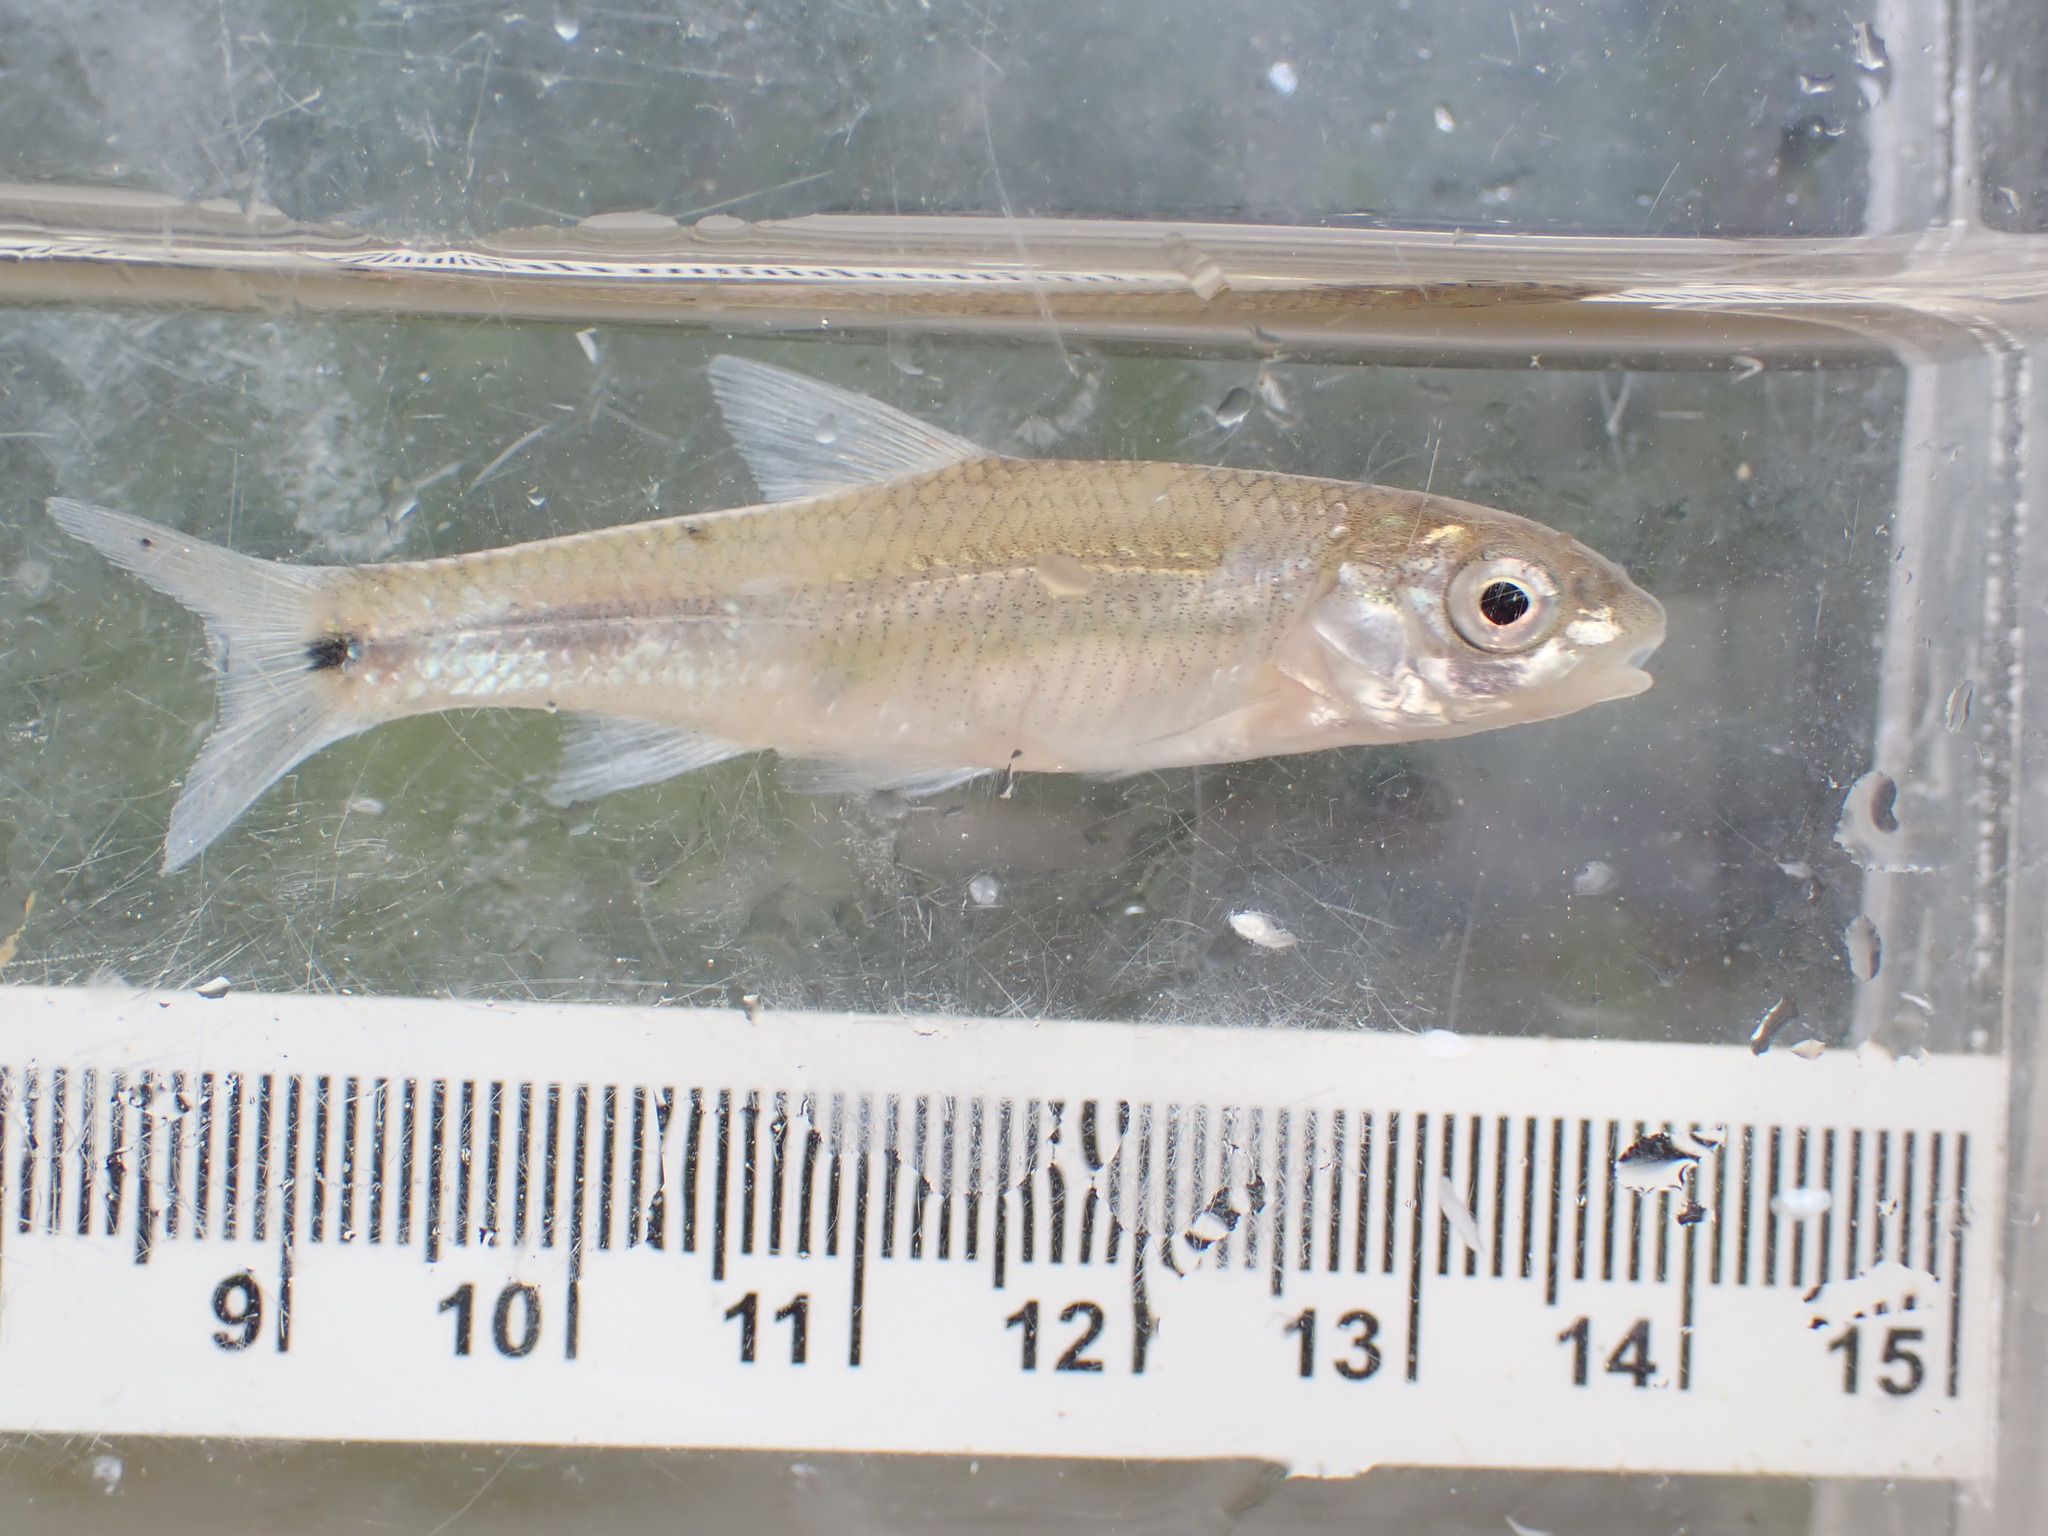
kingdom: Animalia
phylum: Chordata
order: Cypriniformes
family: Cyprinidae
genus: Notropis
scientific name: Notropis
